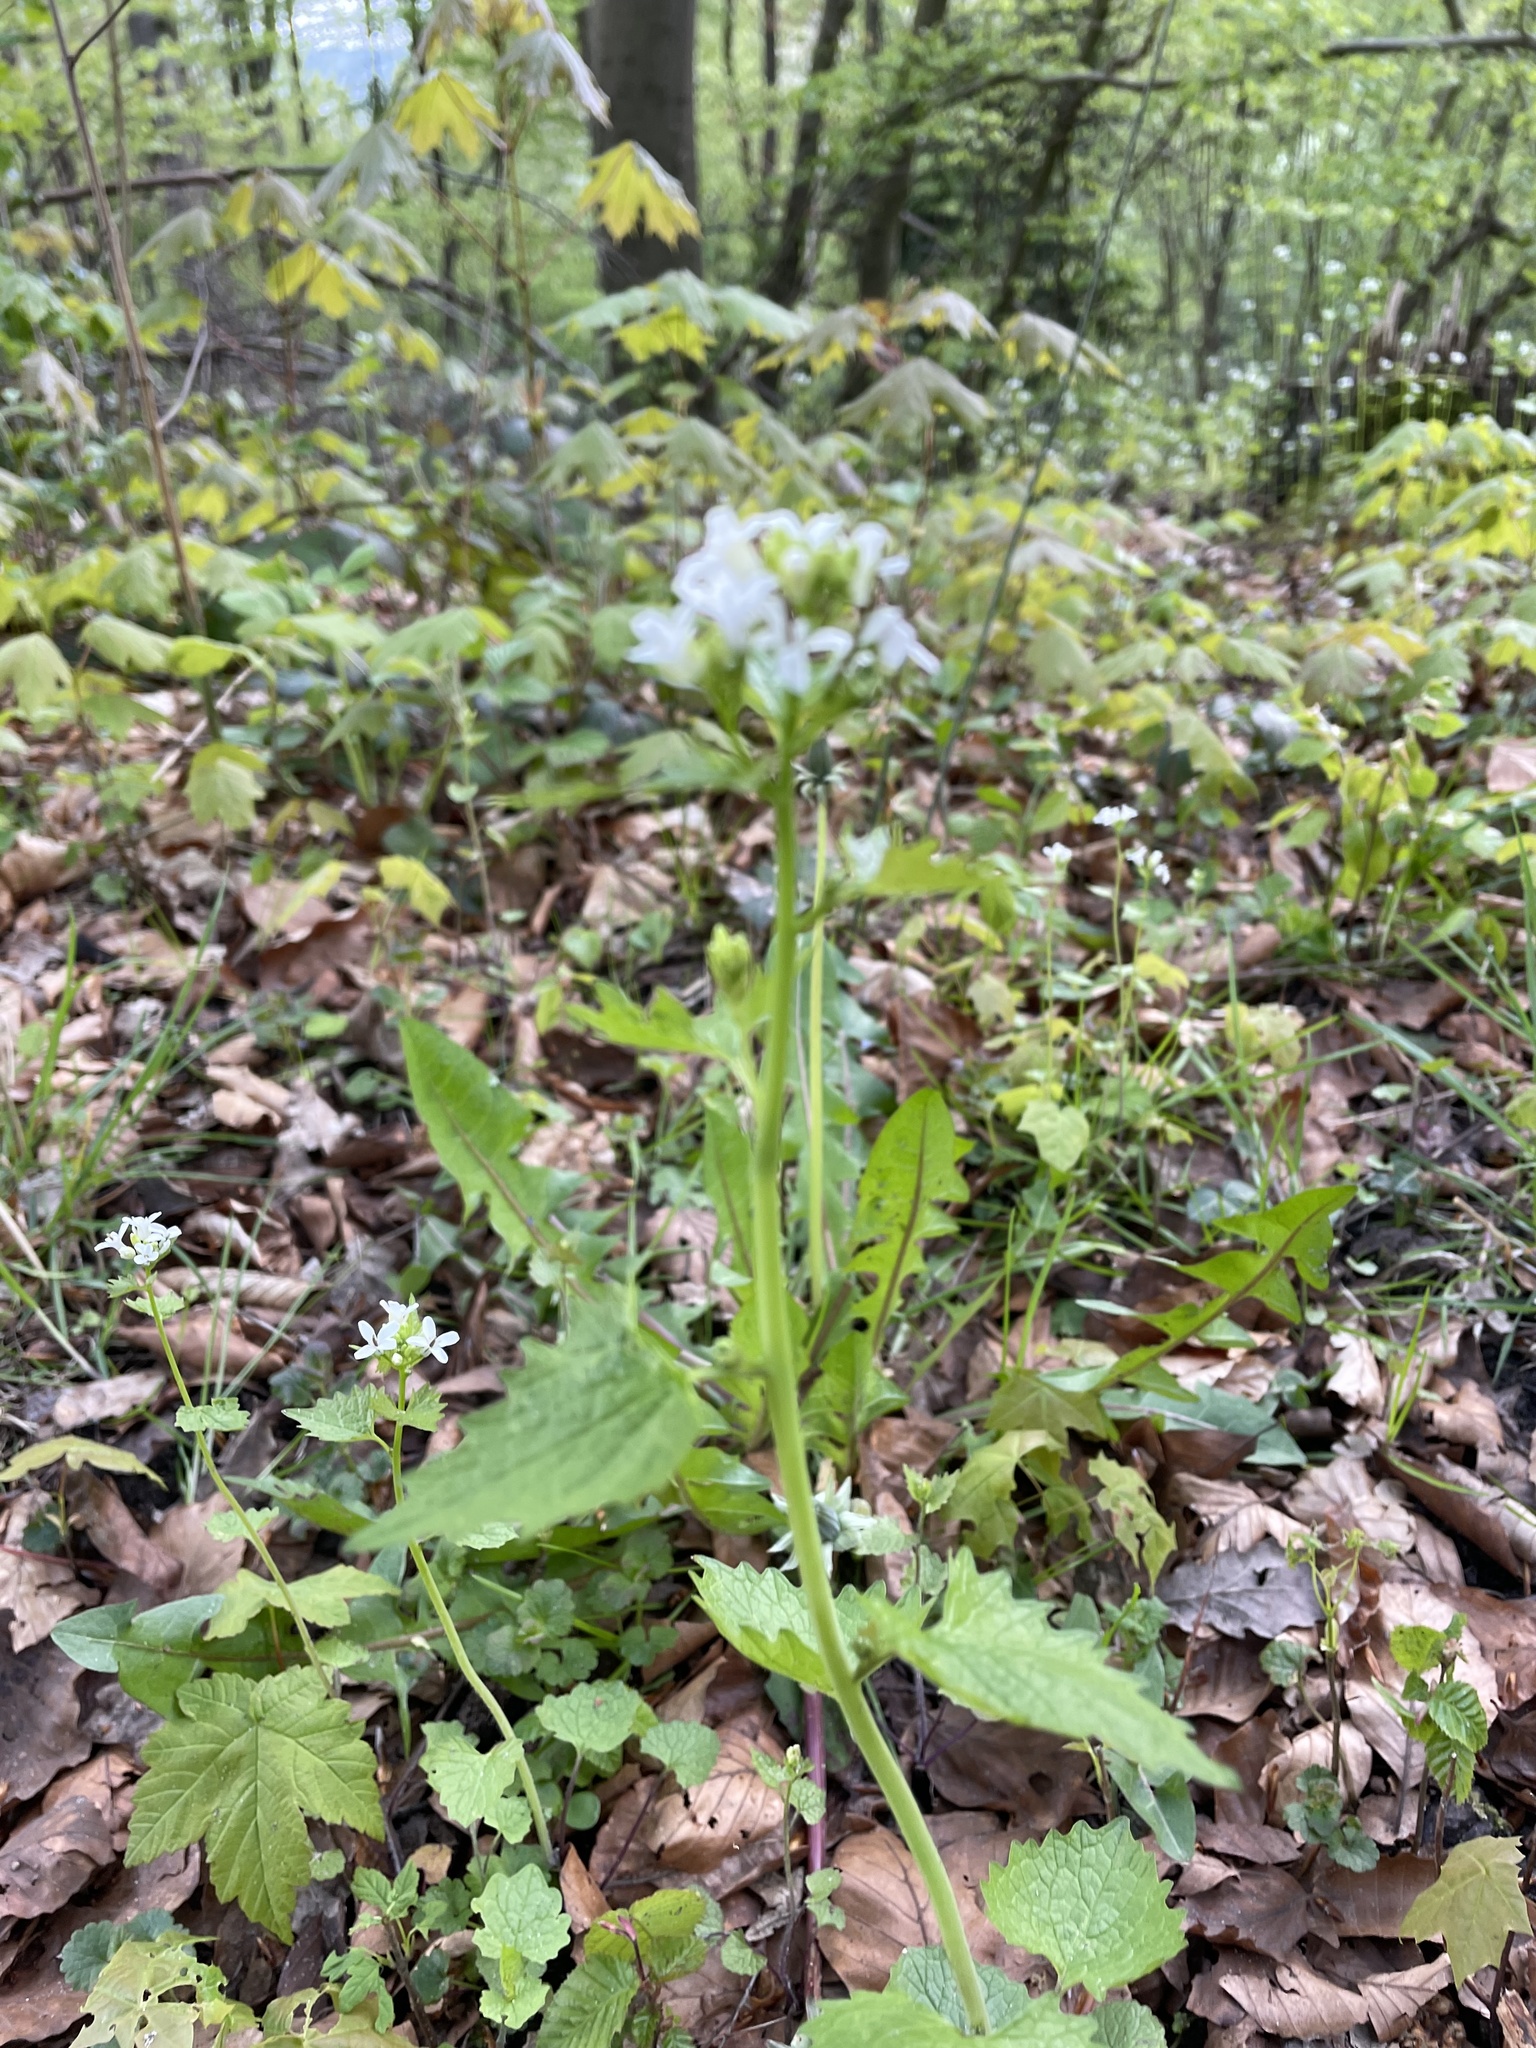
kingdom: Plantae
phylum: Tracheophyta
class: Magnoliopsida
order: Brassicales
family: Brassicaceae
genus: Alliaria
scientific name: Alliaria petiolata
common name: Garlic mustard
